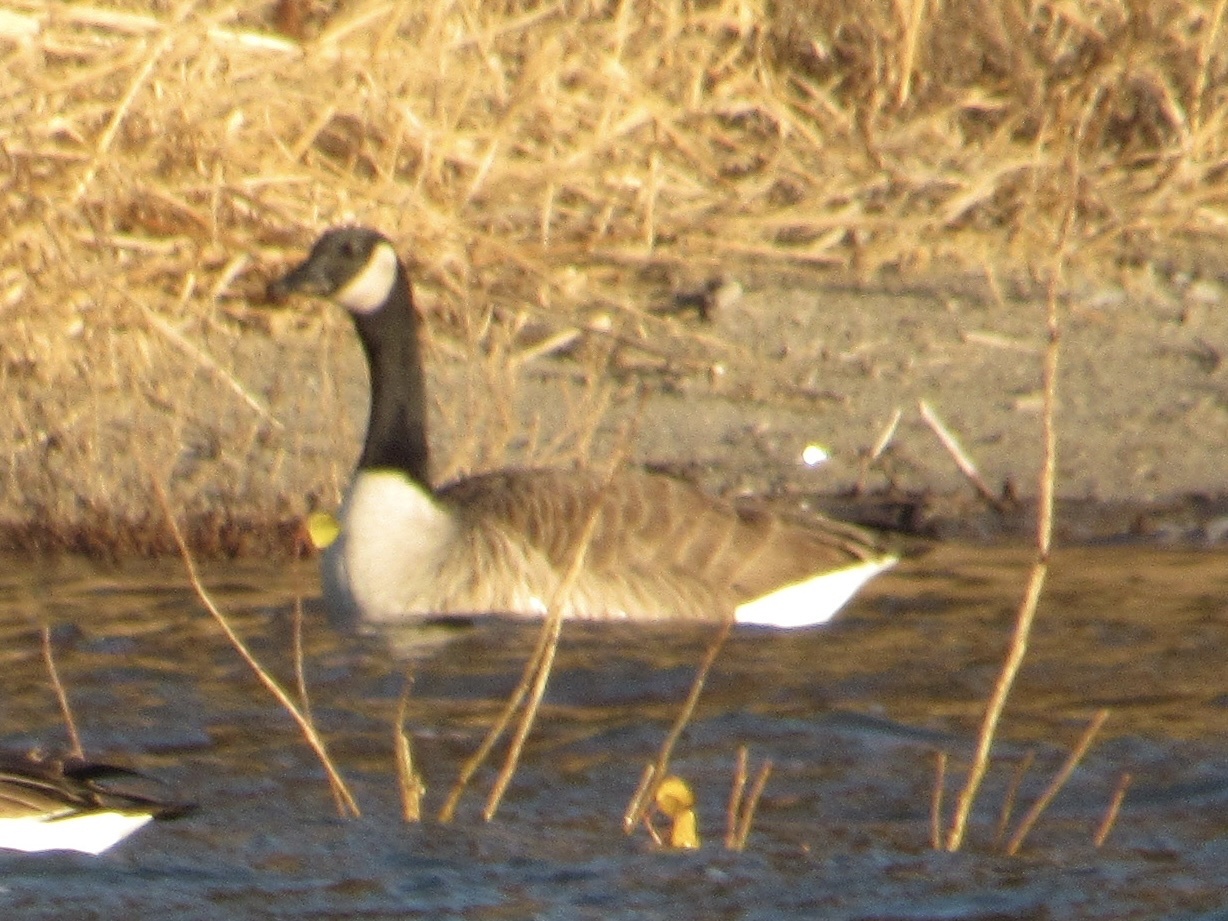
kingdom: Animalia
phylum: Chordata
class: Aves
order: Anseriformes
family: Anatidae
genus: Branta
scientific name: Branta canadensis
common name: Canada goose
